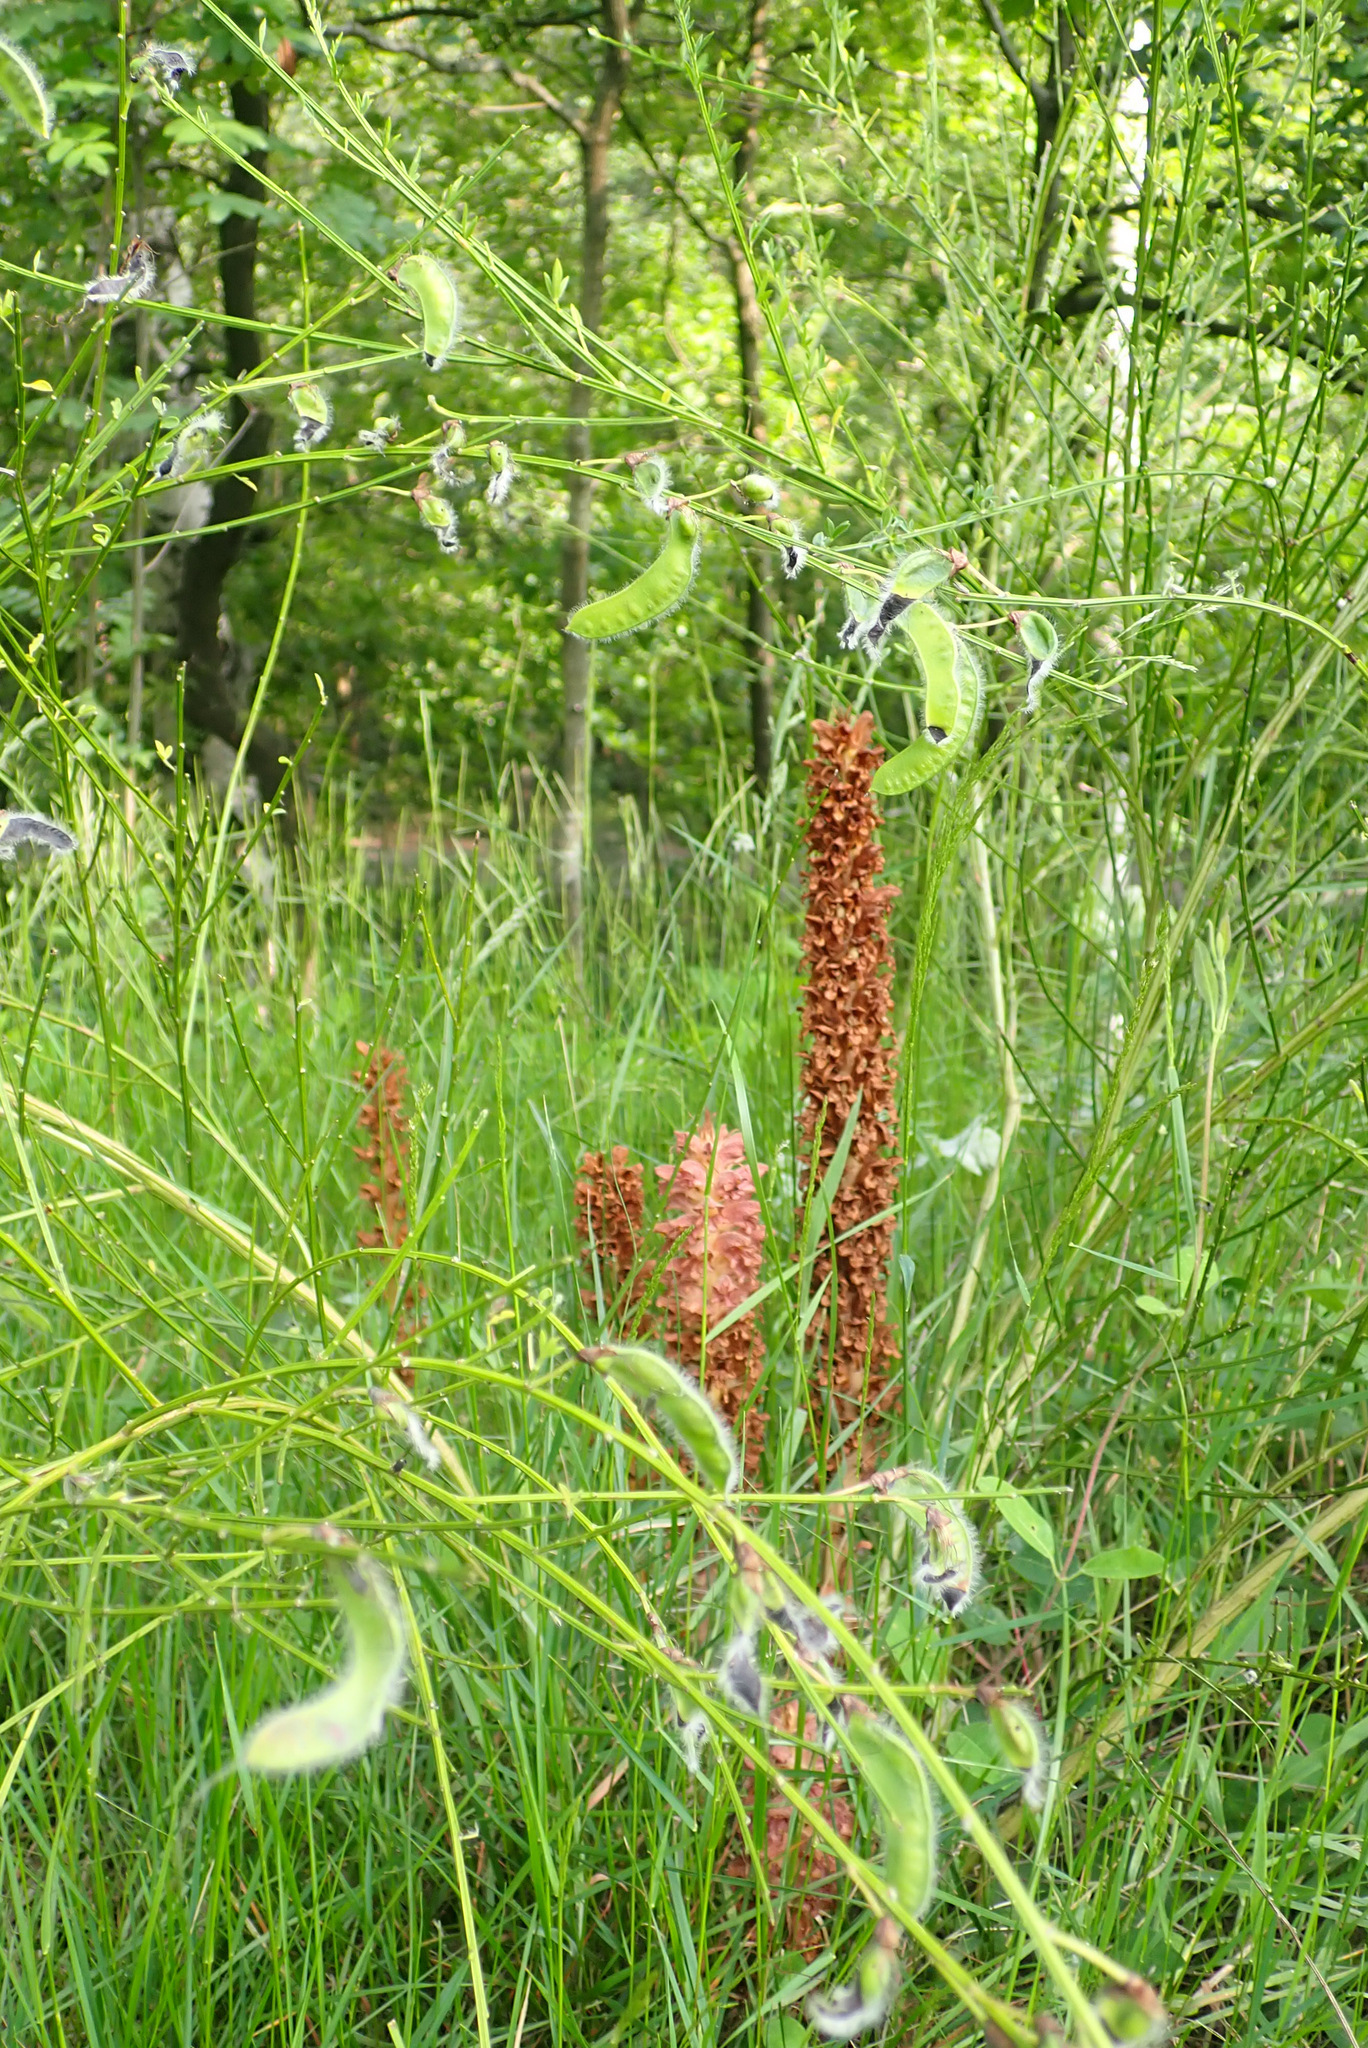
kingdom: Plantae
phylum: Tracheophyta
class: Magnoliopsida
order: Lamiales
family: Orobanchaceae
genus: Orobanche
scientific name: Orobanche rapum-genistae
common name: Greater broomrape
